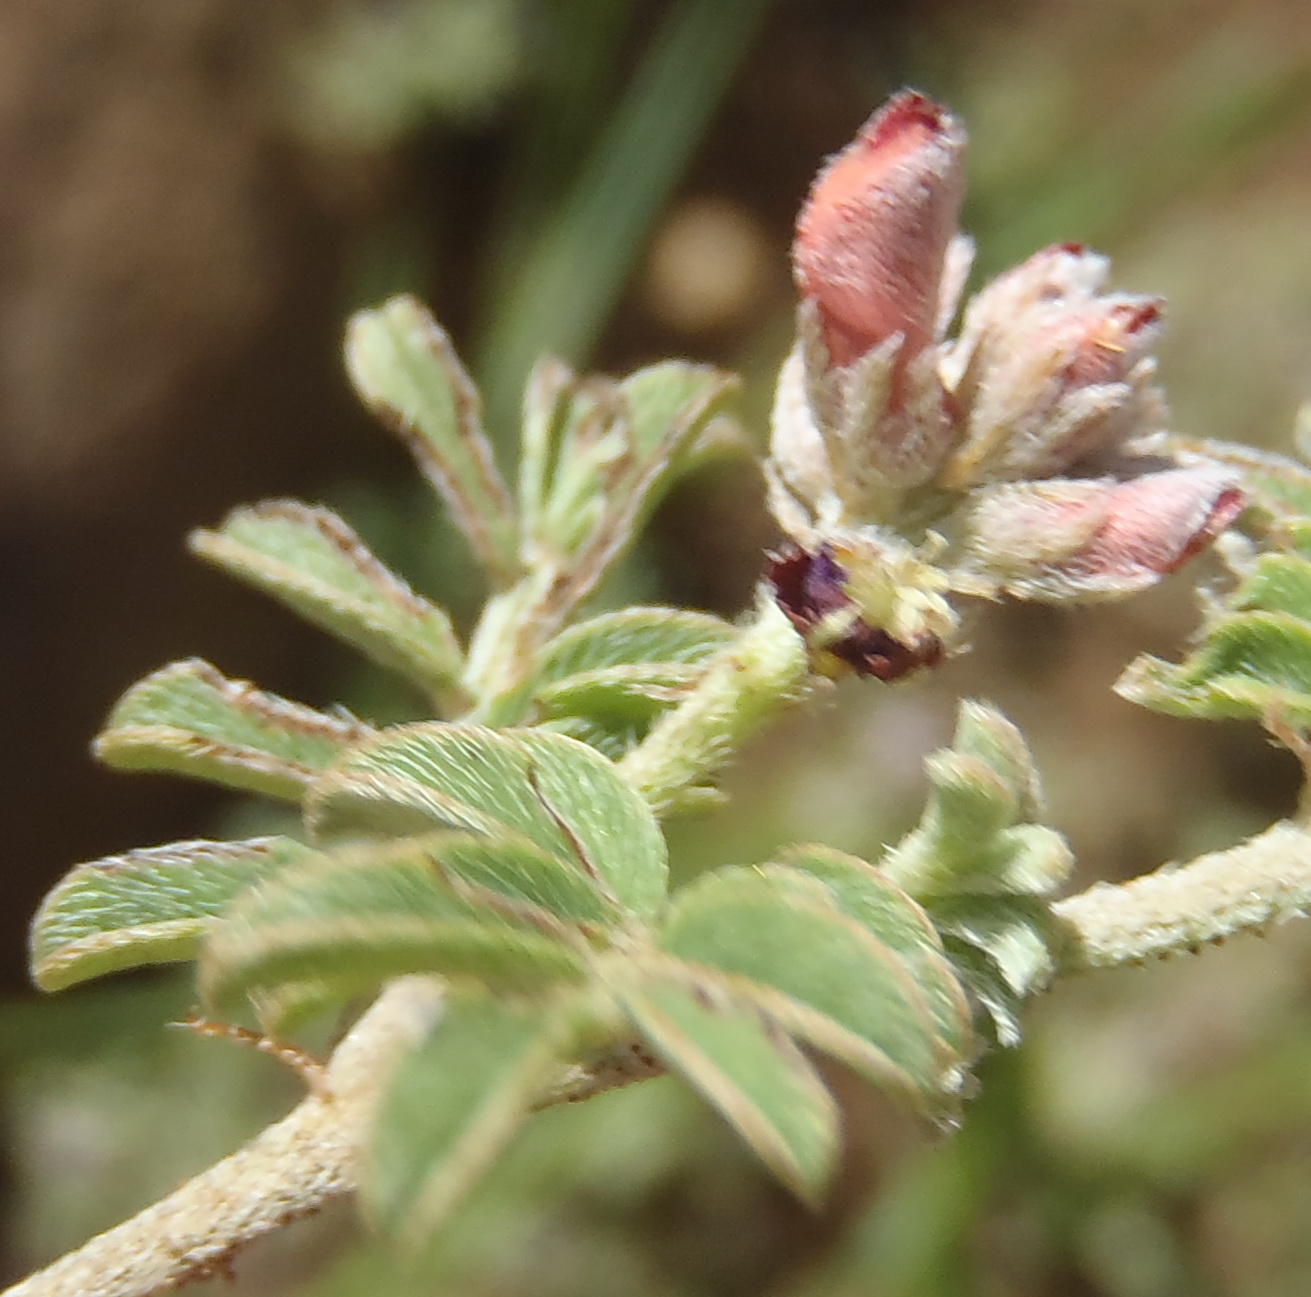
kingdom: Plantae
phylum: Tracheophyta
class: Magnoliopsida
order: Fabales
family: Fabaceae
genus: Indigofera
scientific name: Indigofera alternans
